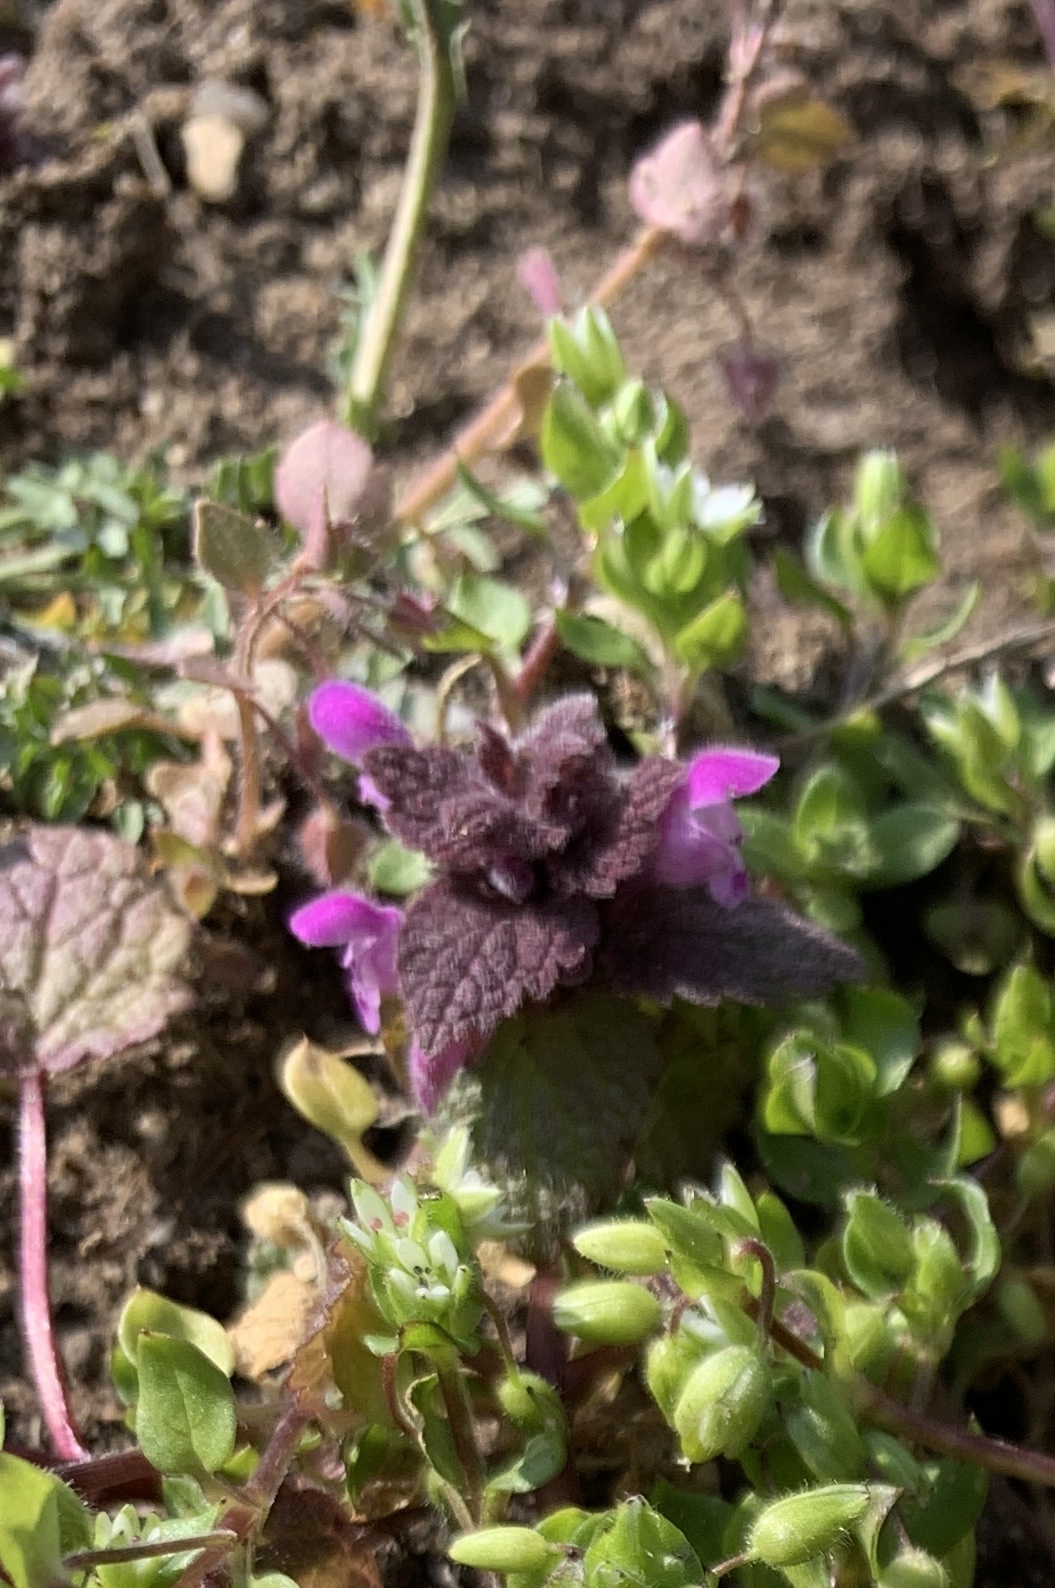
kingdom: Plantae
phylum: Tracheophyta
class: Magnoliopsida
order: Lamiales
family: Lamiaceae
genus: Lamium
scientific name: Lamium purpureum
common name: Red dead-nettle
